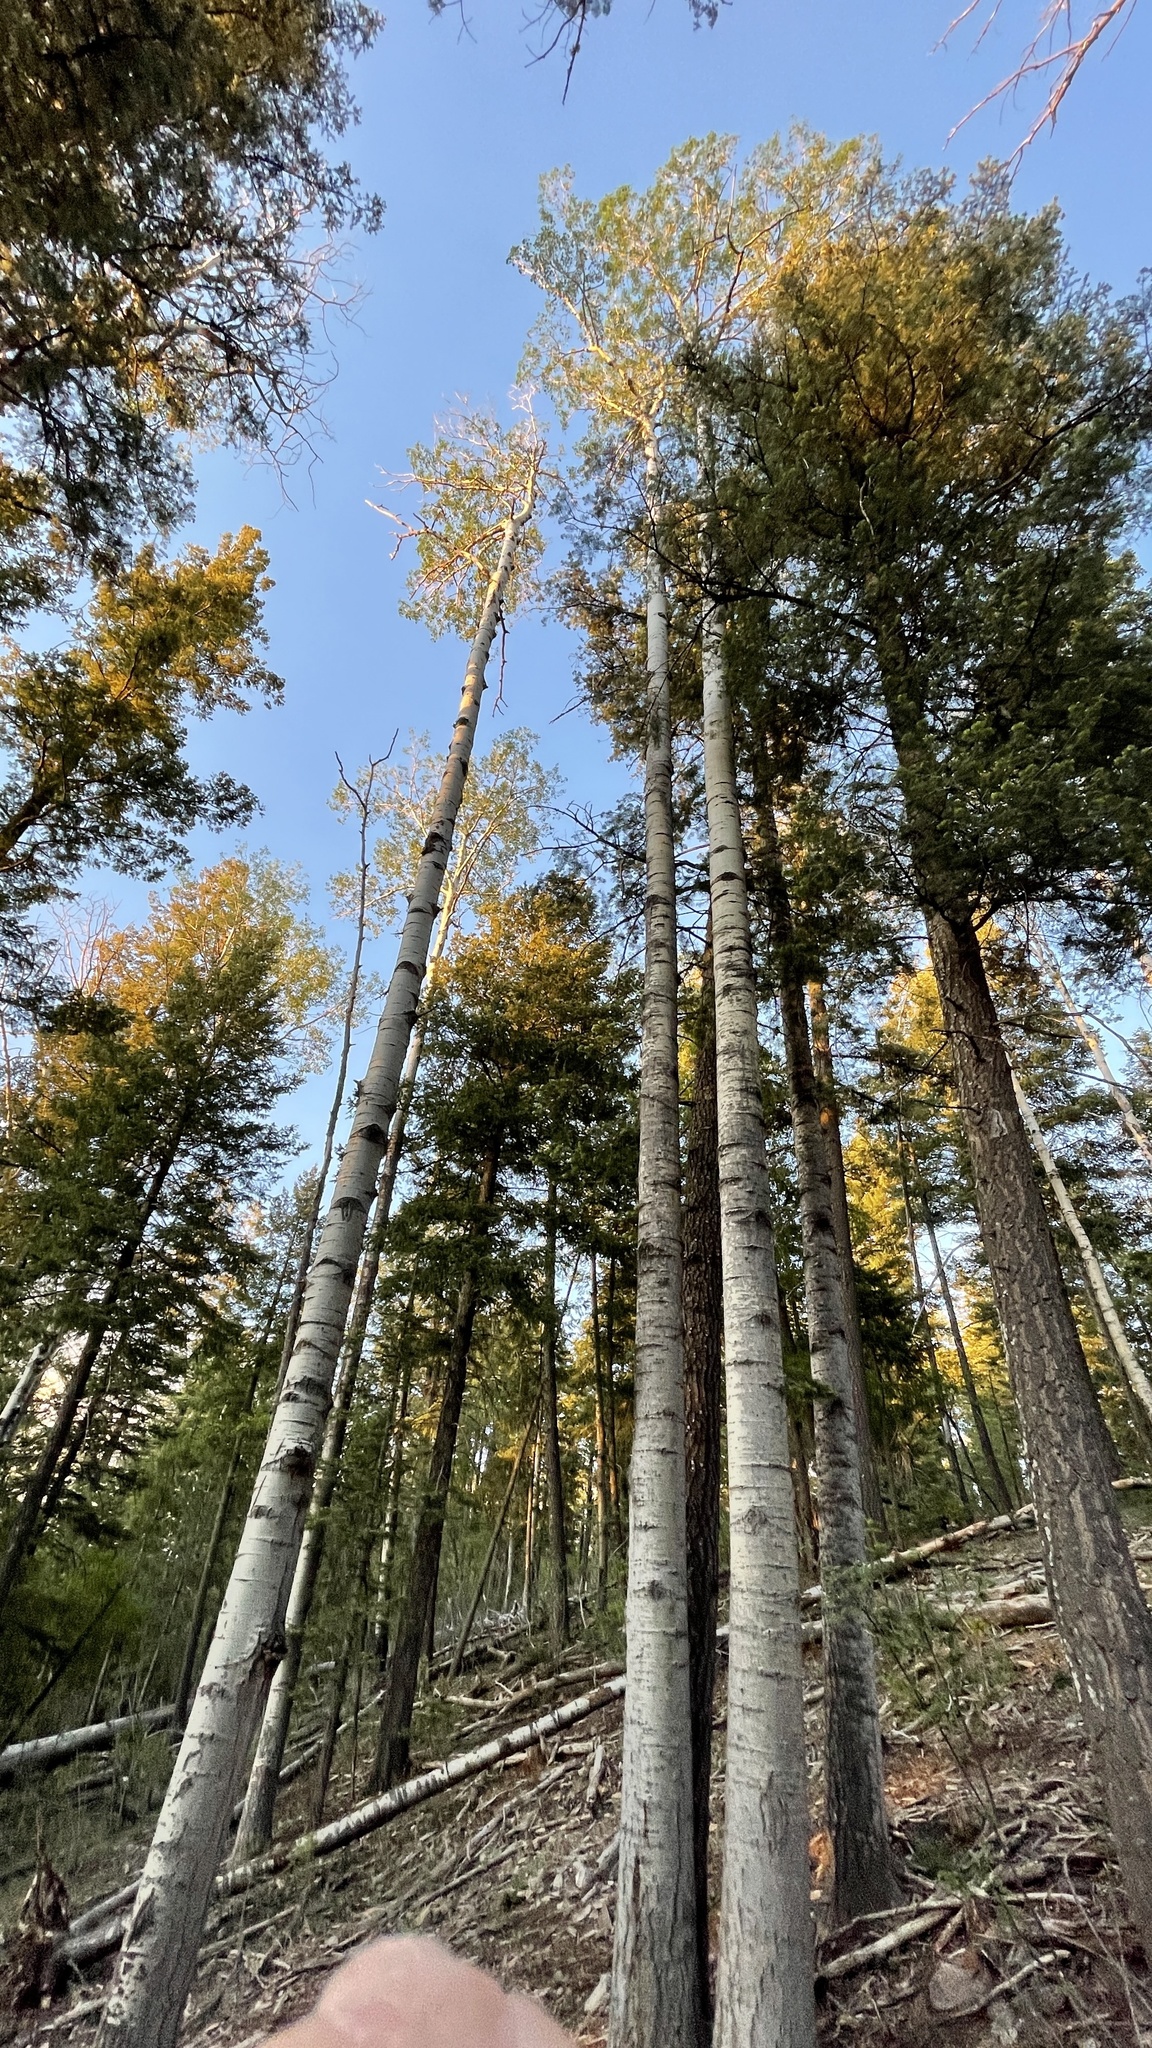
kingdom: Plantae
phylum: Tracheophyta
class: Magnoliopsida
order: Malpighiales
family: Salicaceae
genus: Populus
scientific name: Populus tremuloides
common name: Quaking aspen
